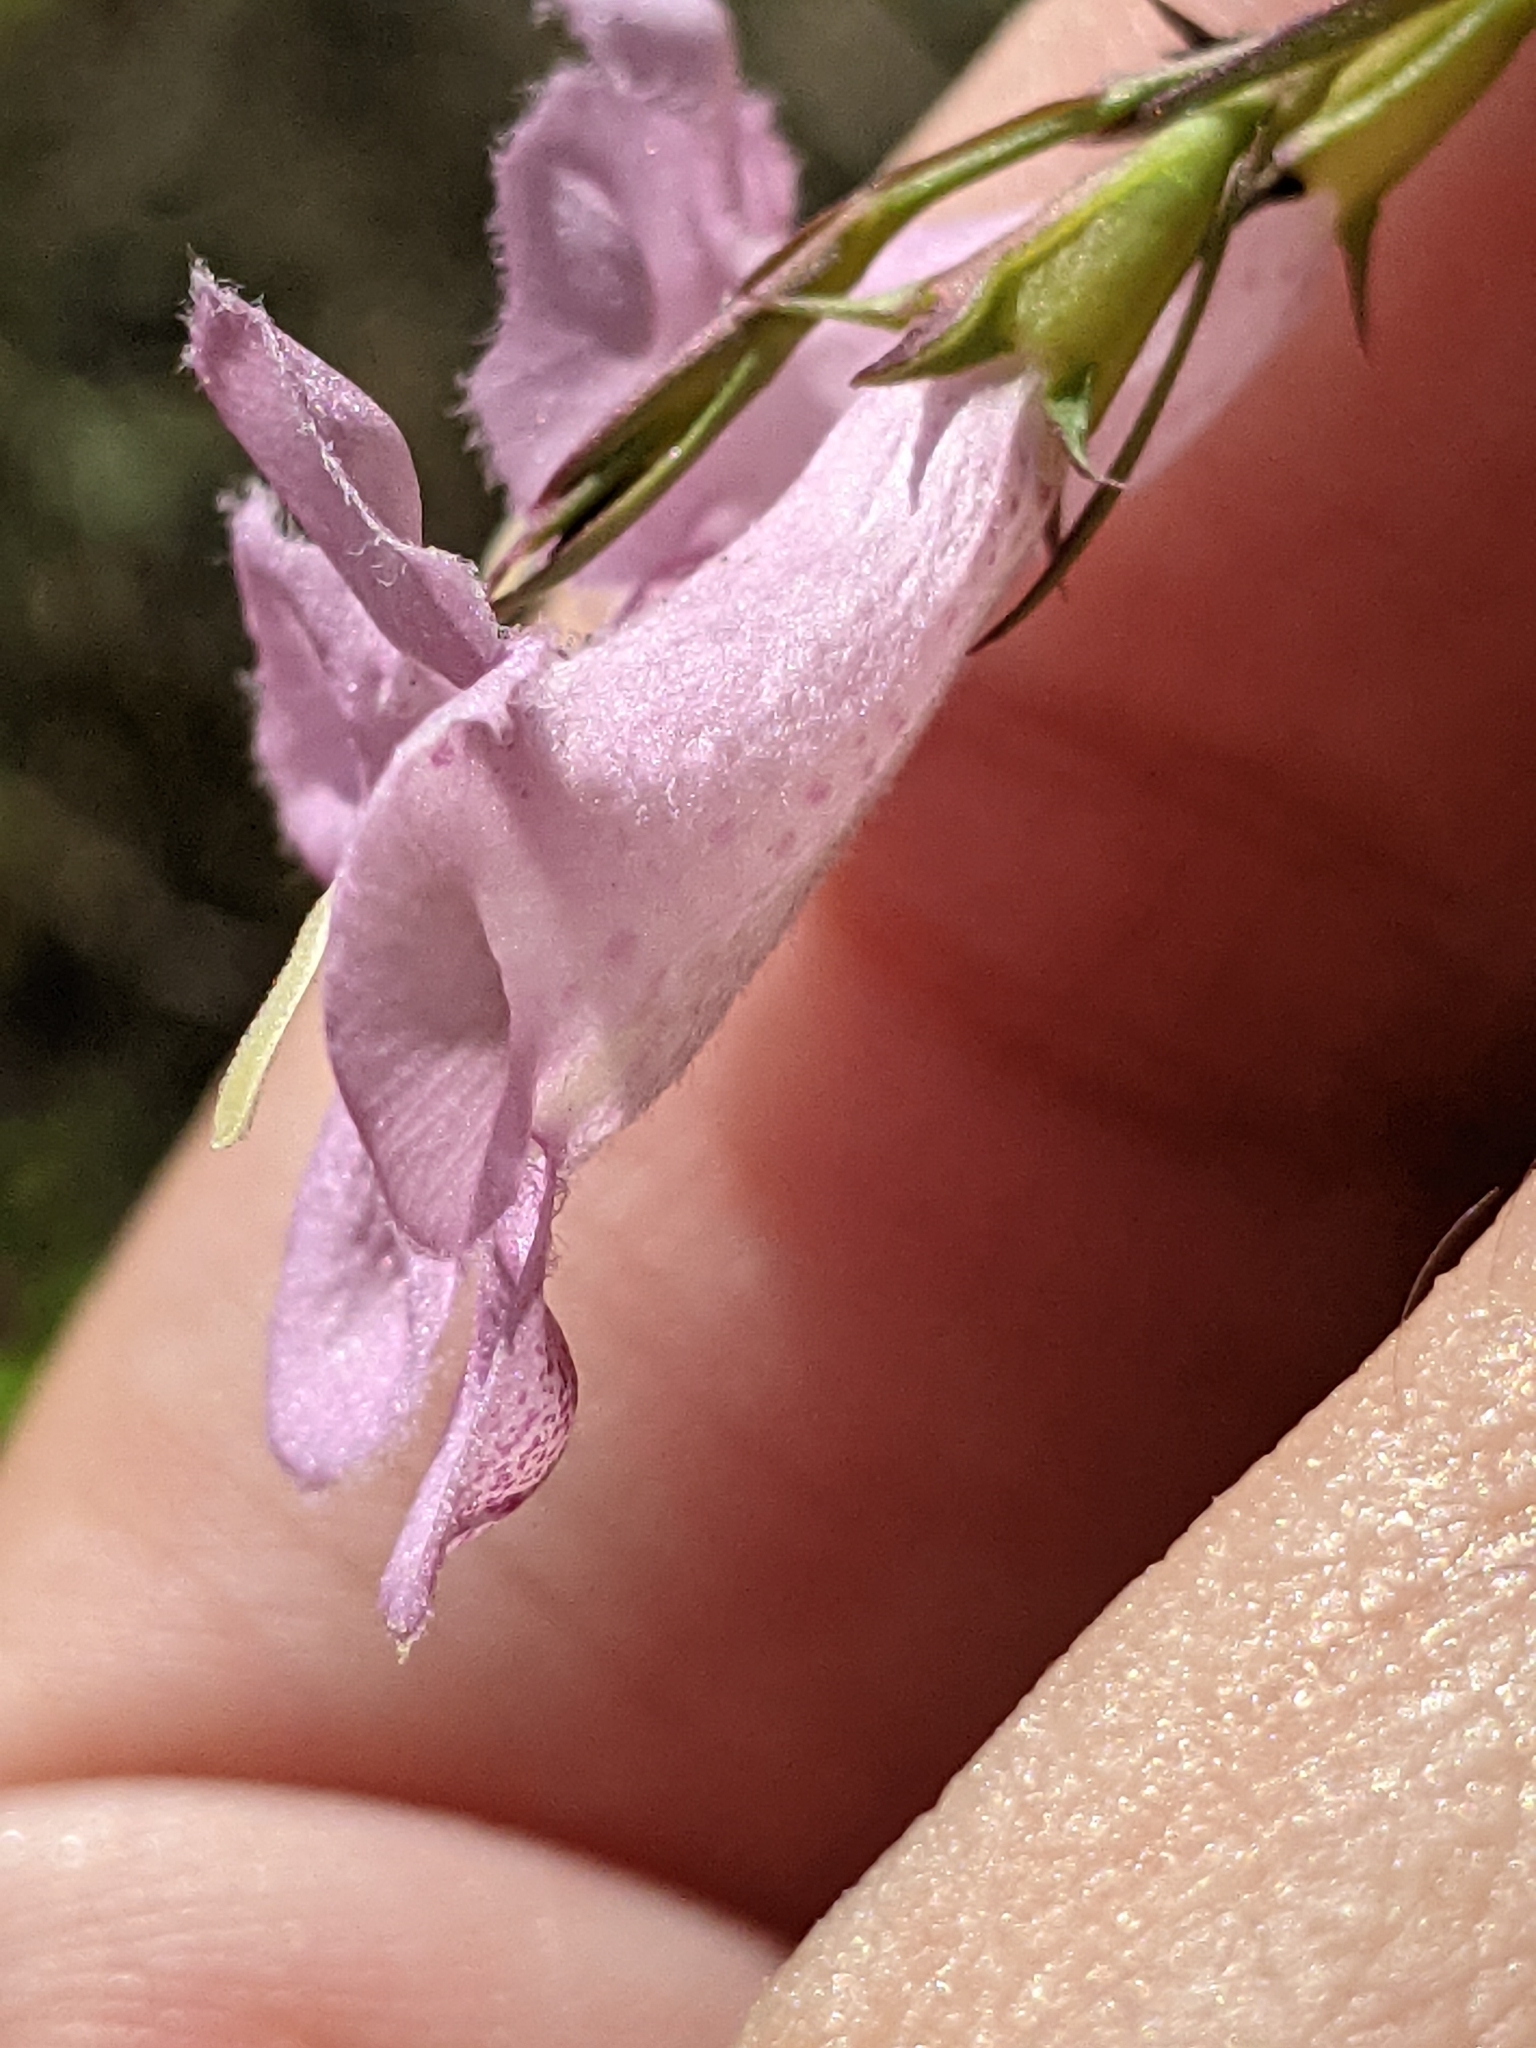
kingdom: Plantae
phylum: Tracheophyta
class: Magnoliopsida
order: Lamiales
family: Orobanchaceae
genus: Agalinis
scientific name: Agalinis heterophylla
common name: Prairie agalinis
